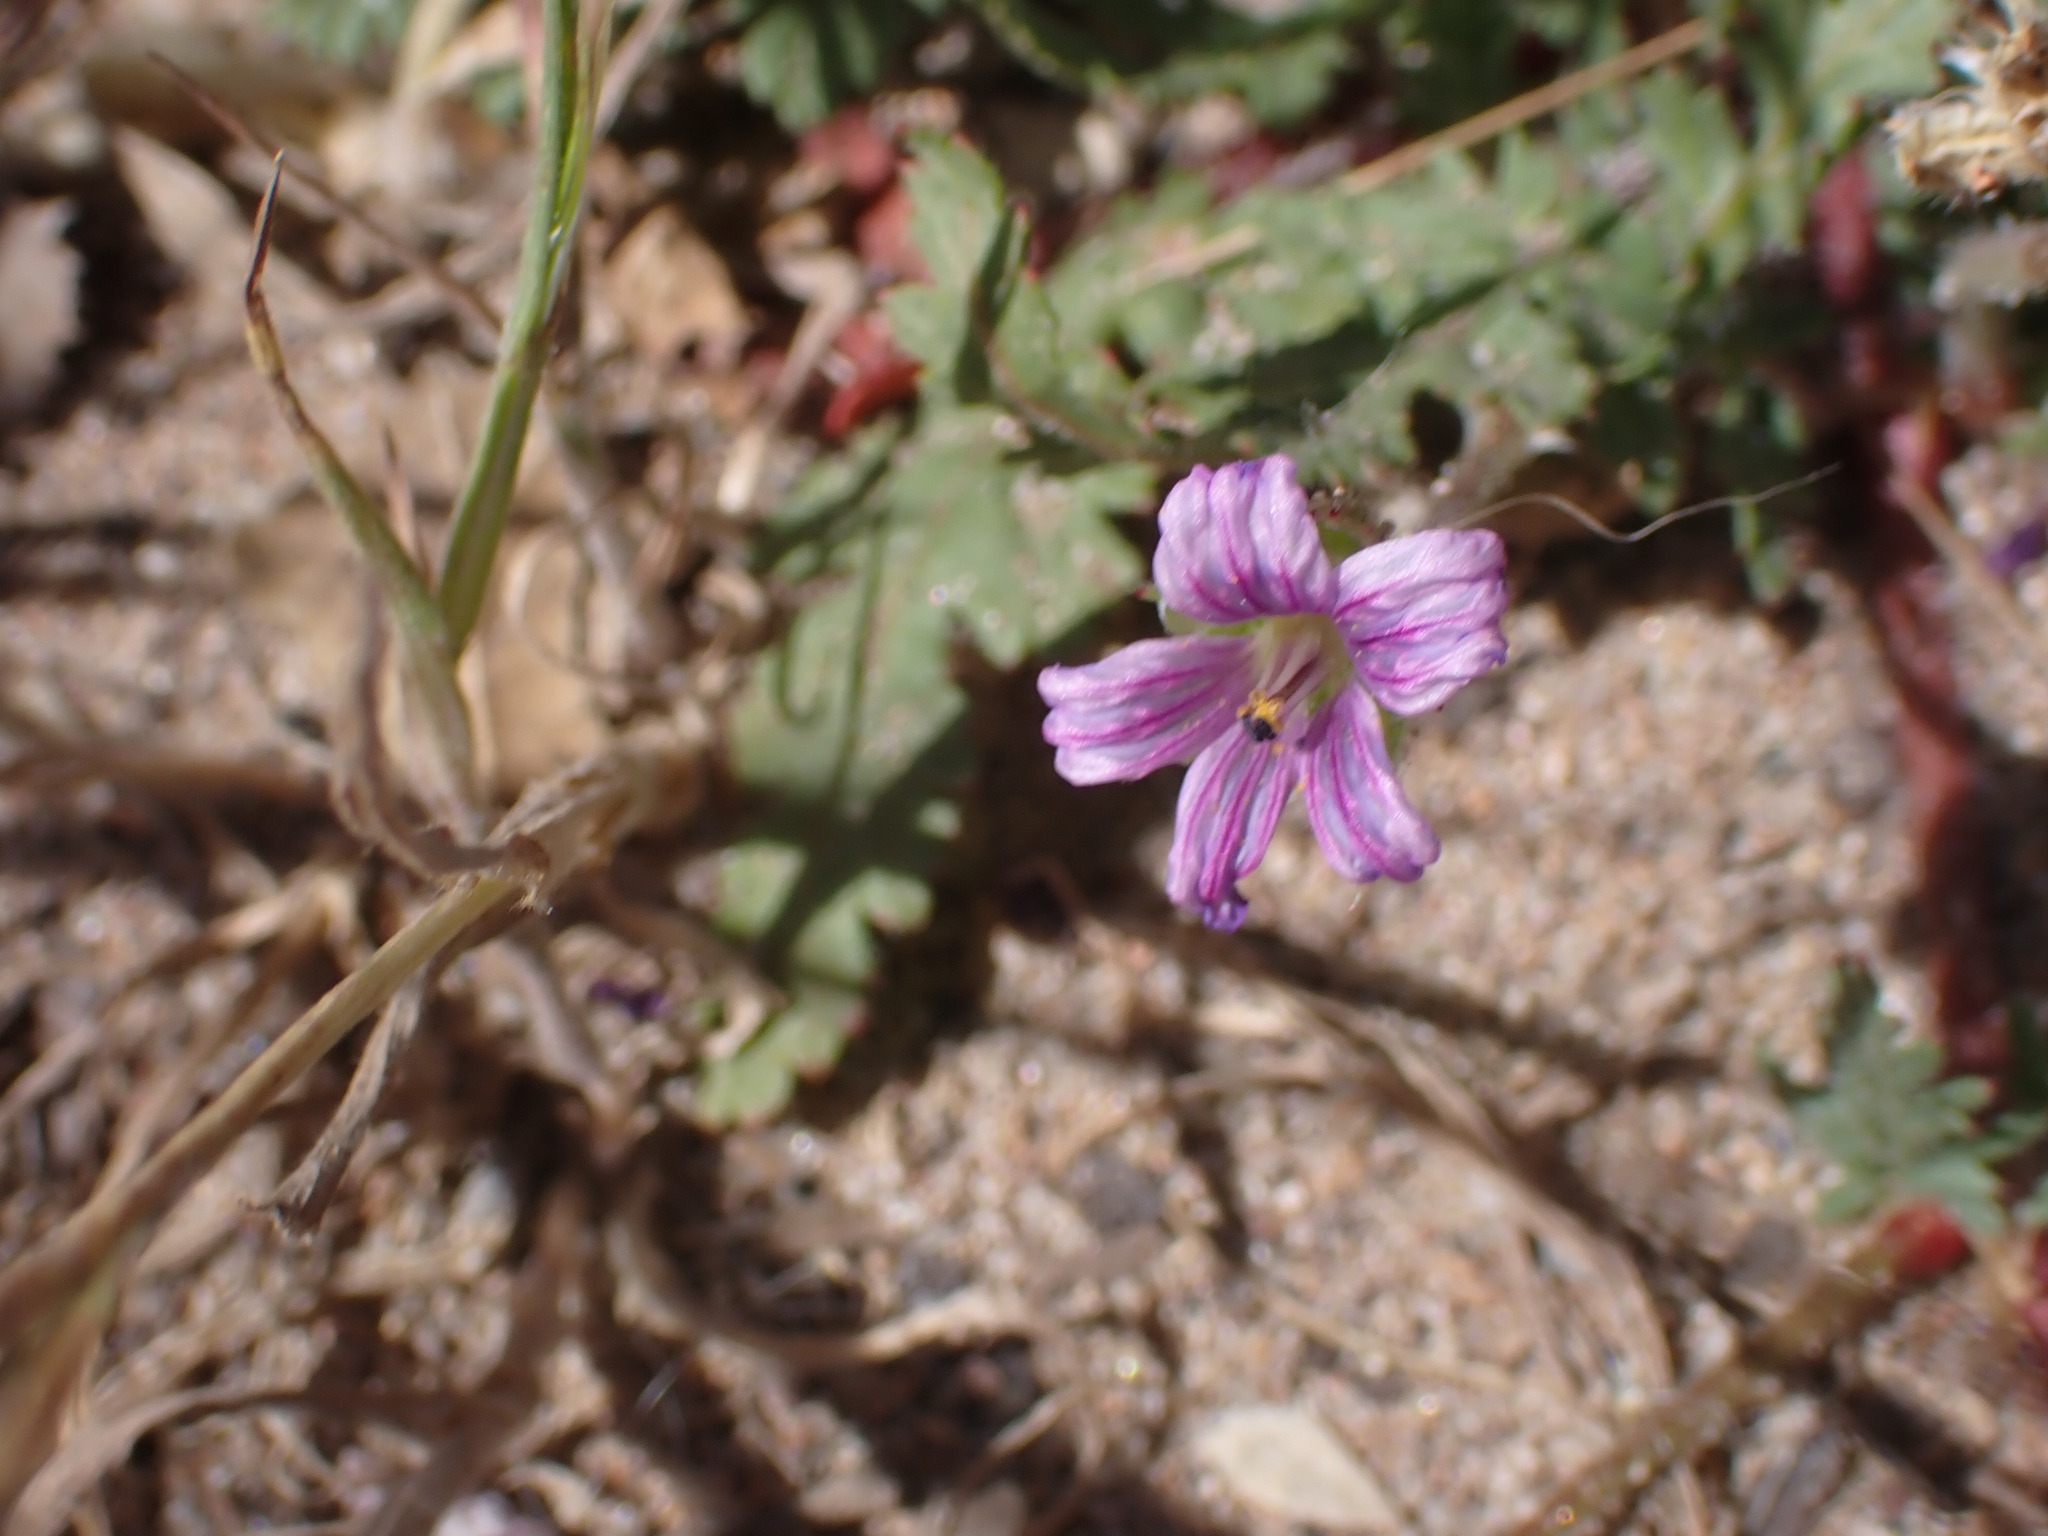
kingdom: Plantae
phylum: Tracheophyta
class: Magnoliopsida
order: Geraniales
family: Geraniaceae
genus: Erodium
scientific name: Erodium botrys
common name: Mediterranean stork's-bill
